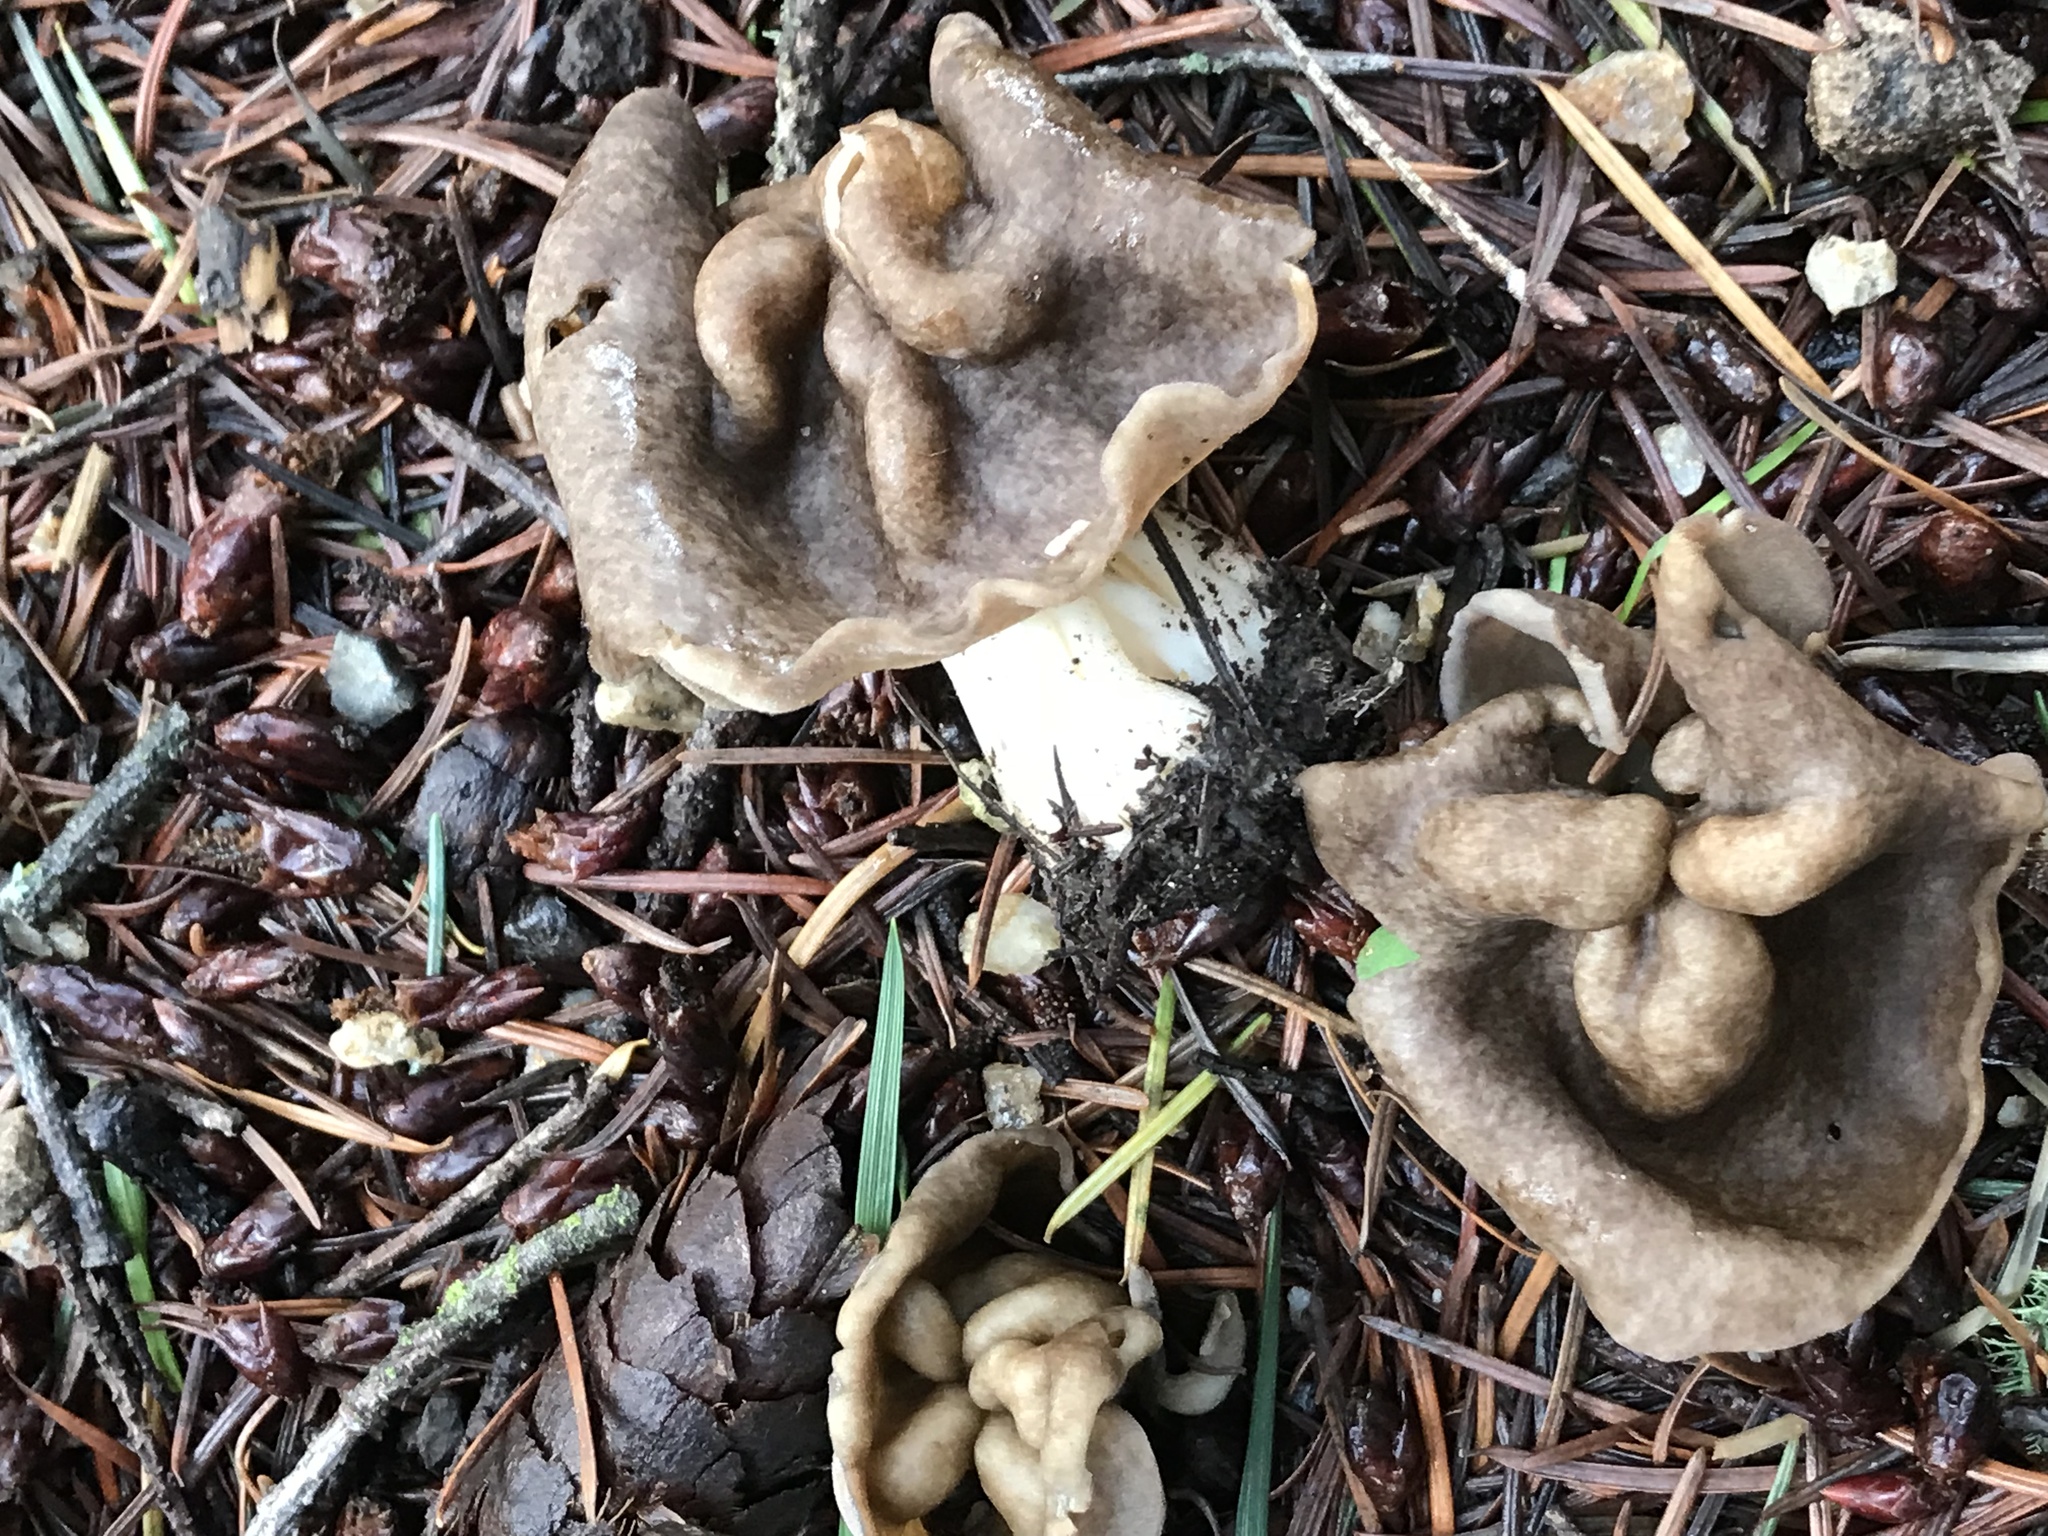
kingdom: Fungi
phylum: Ascomycota
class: Pezizomycetes
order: Pezizales
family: Helvellaceae
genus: Helvella
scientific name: Helvella maculata
